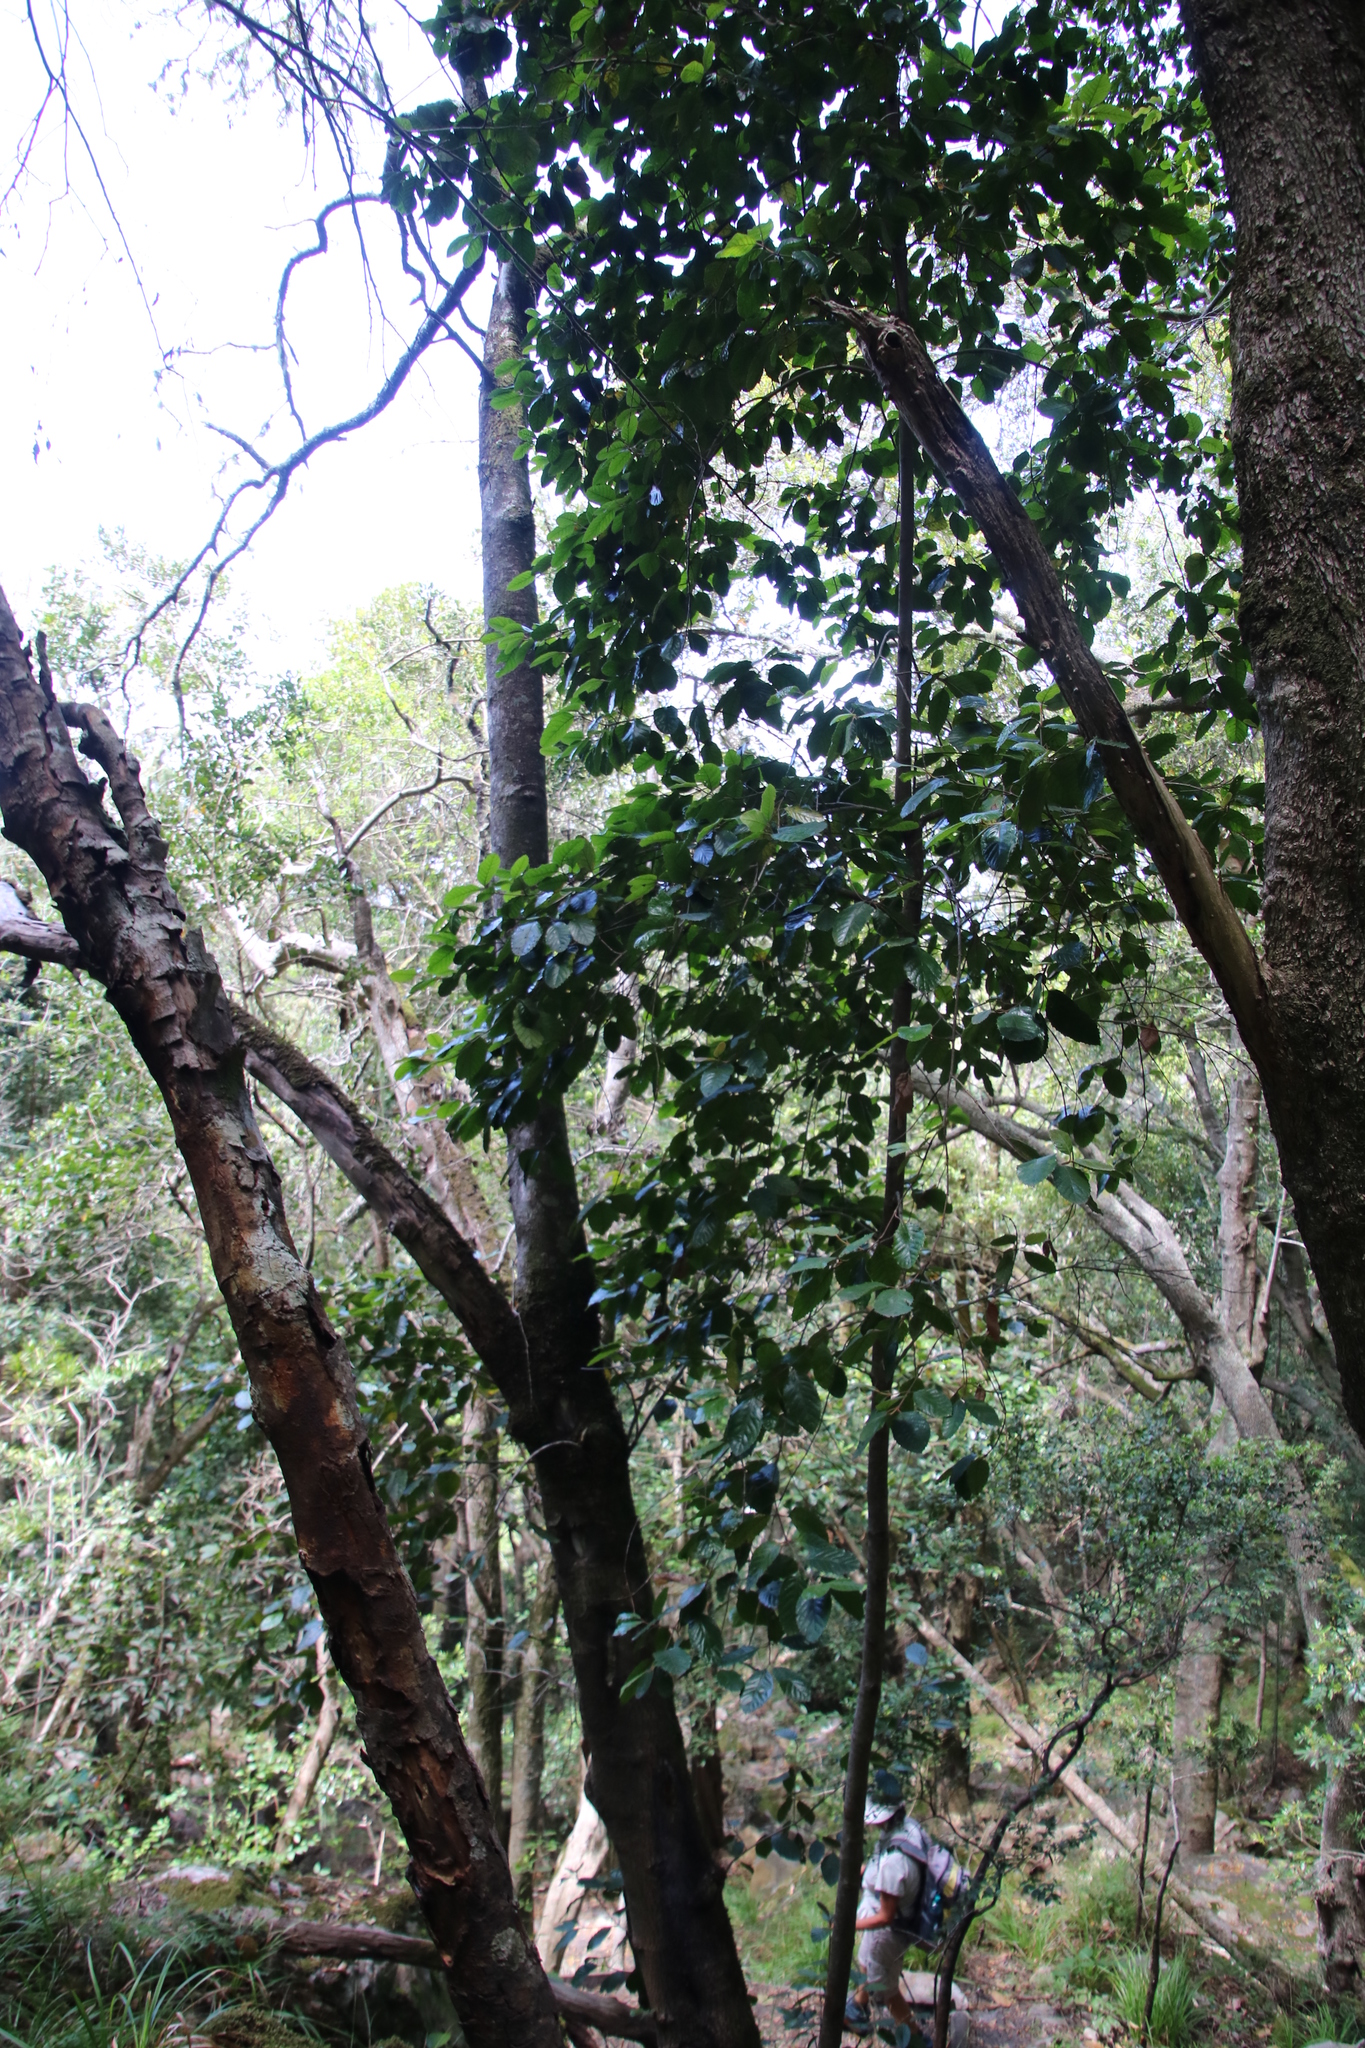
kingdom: Plantae
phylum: Tracheophyta
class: Magnoliopsida
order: Cornales
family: Curtisiaceae
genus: Curtisia
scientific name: Curtisia dentata
